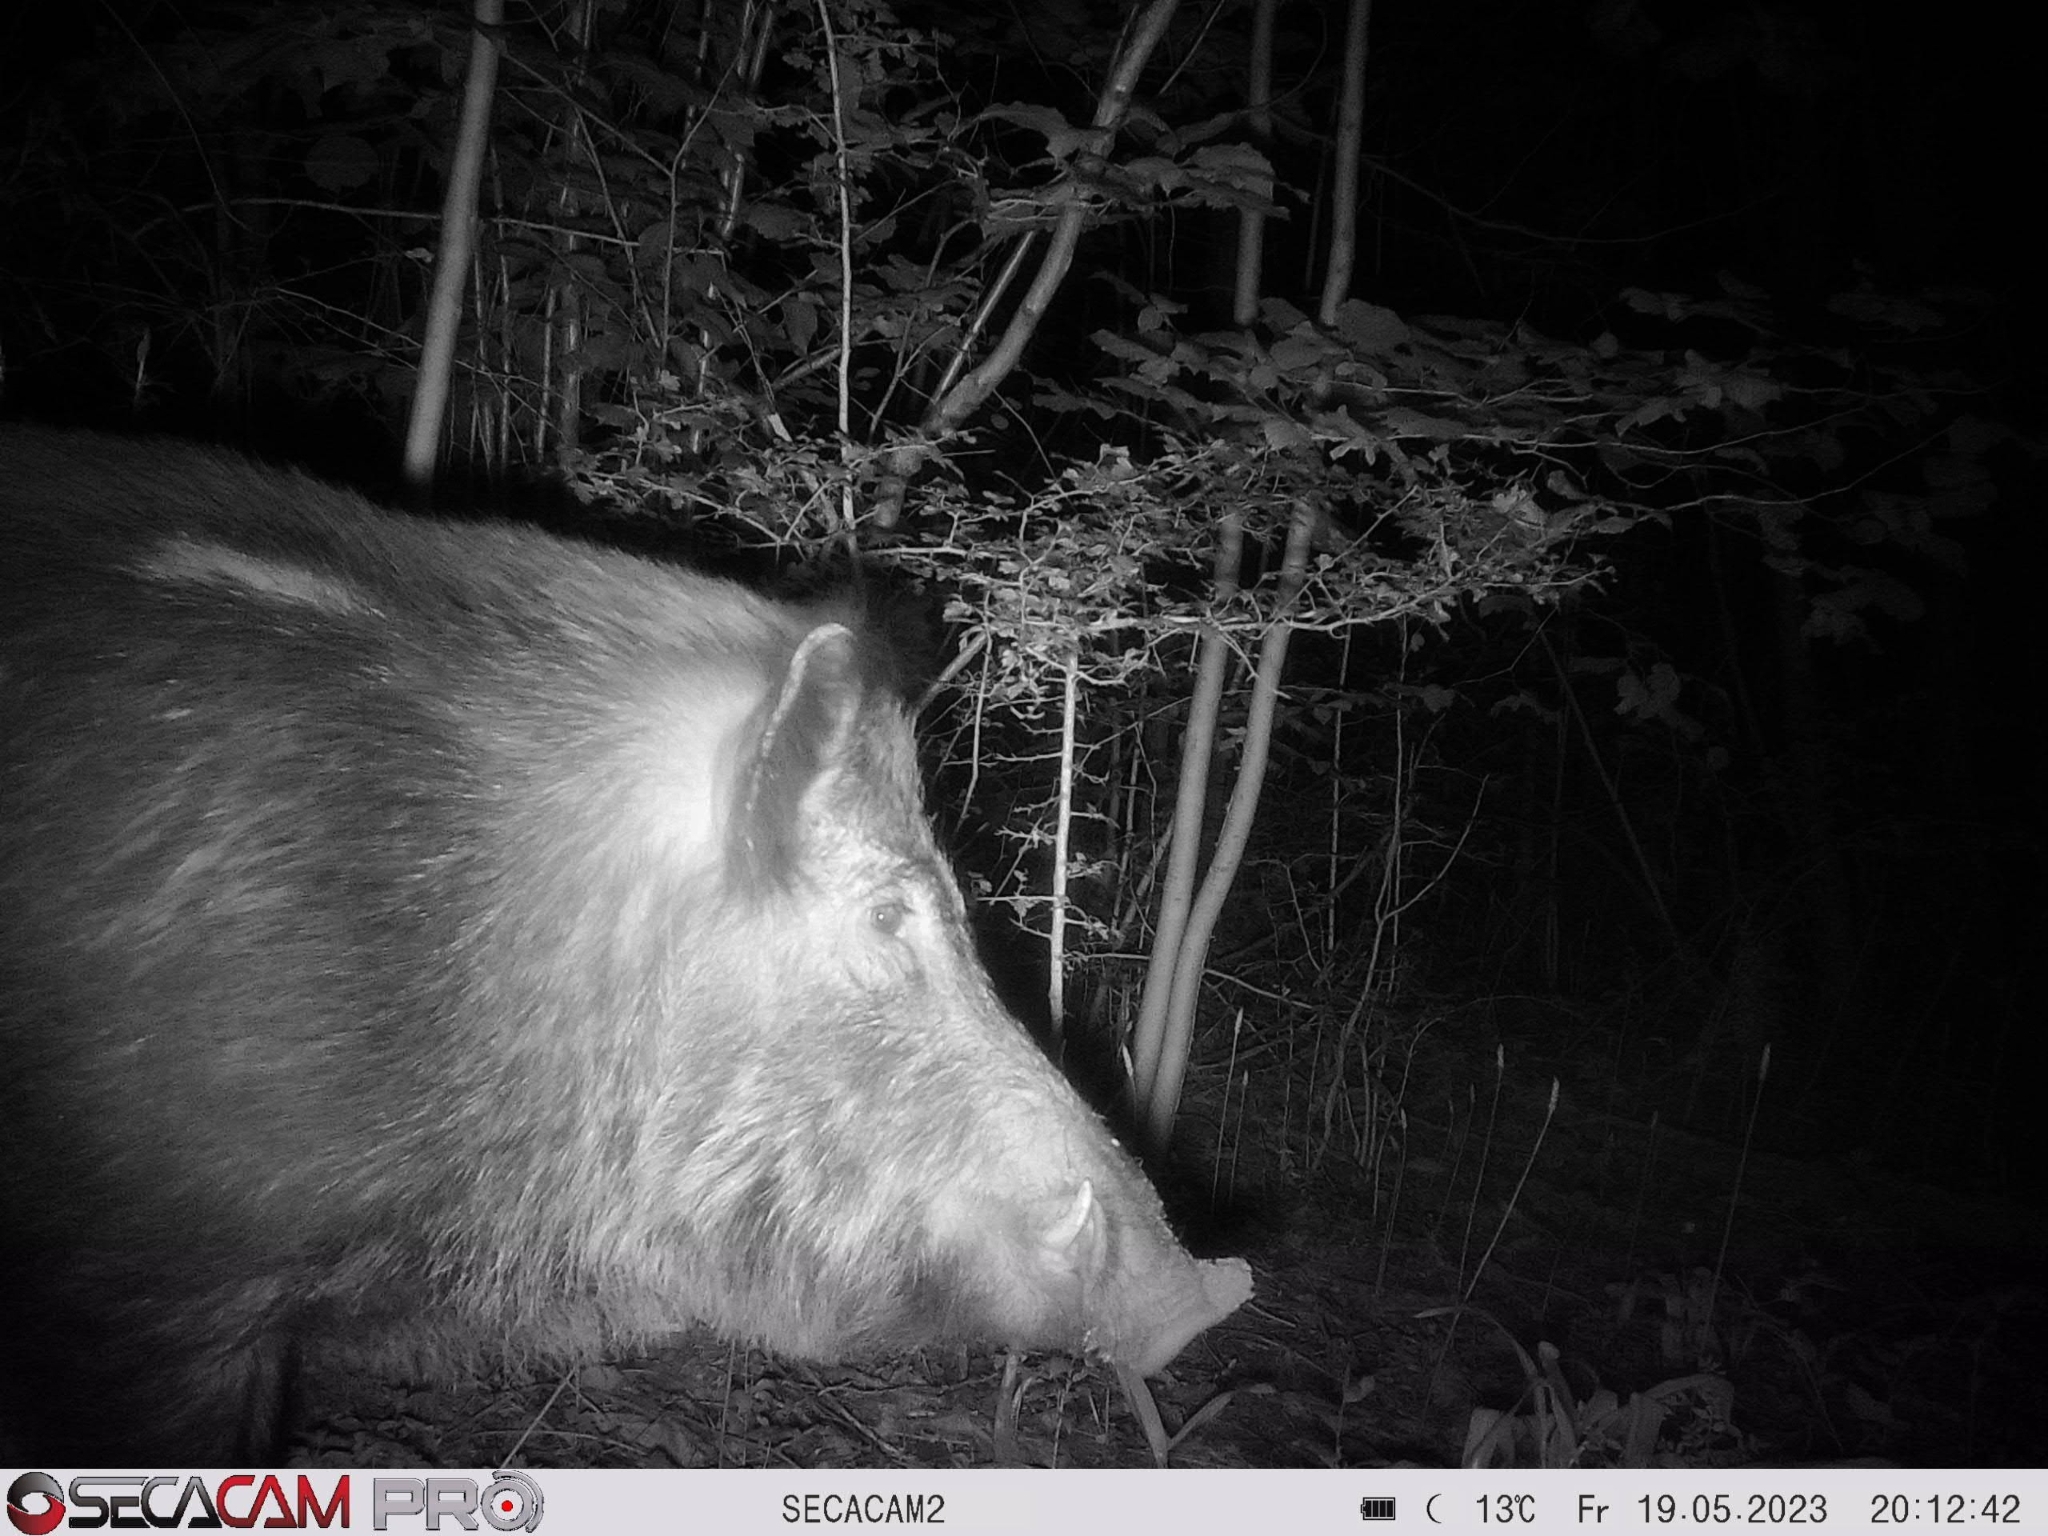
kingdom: Animalia
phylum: Chordata
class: Mammalia
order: Artiodactyla
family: Suidae
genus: Sus
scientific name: Sus scrofa
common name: Wild boar
